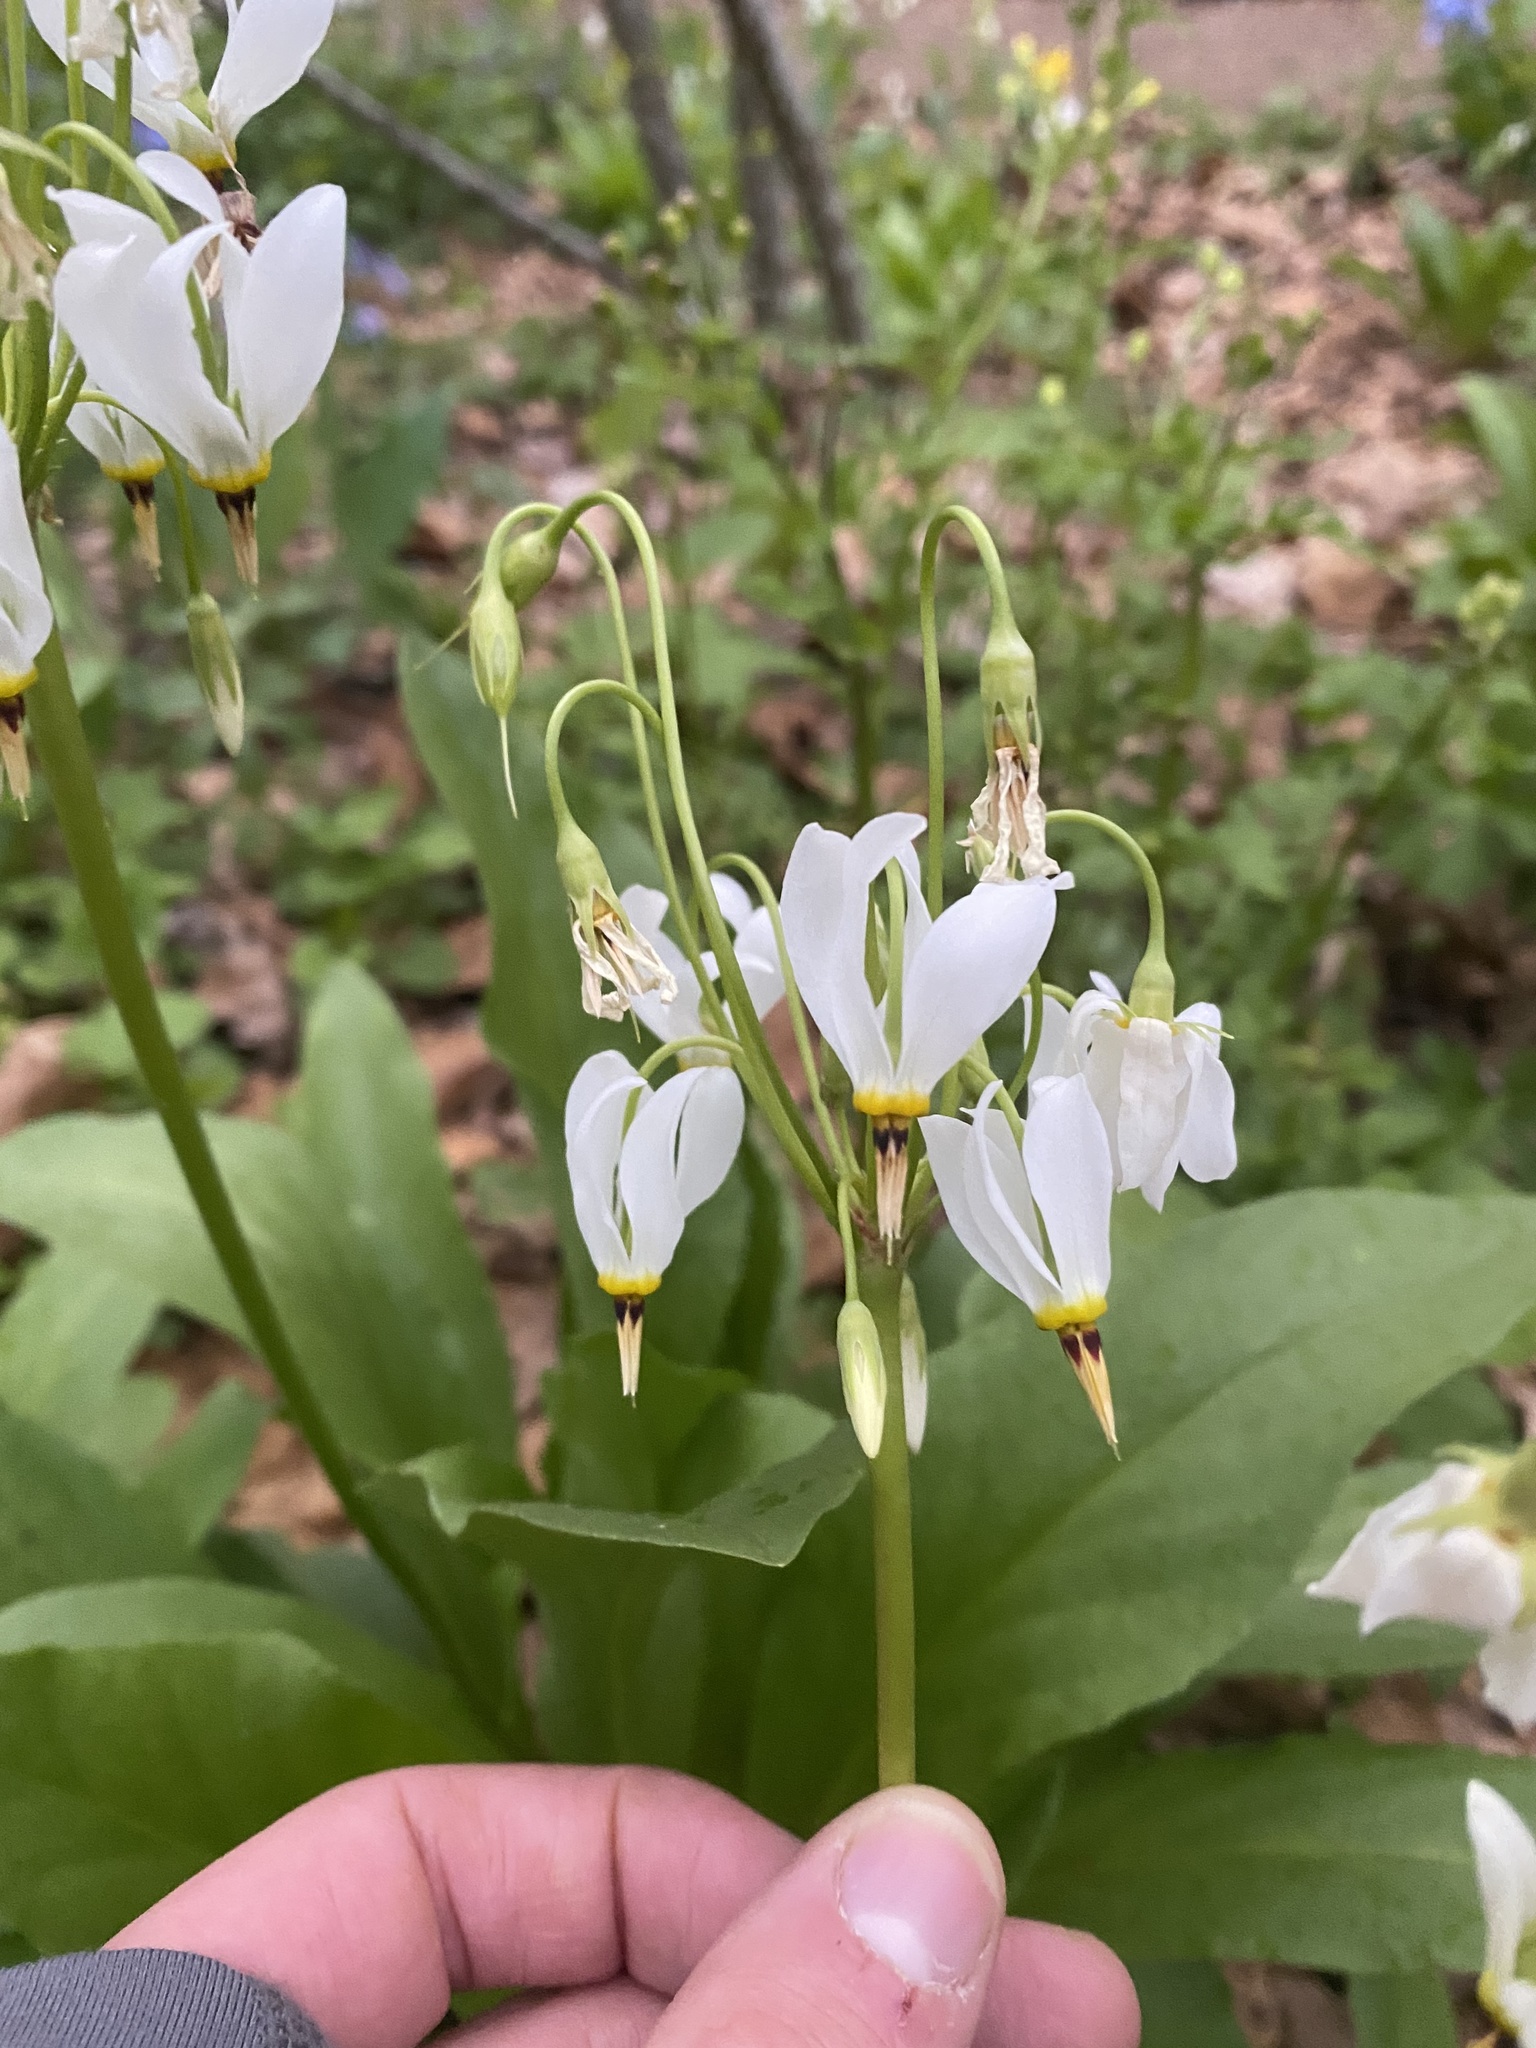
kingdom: Plantae
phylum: Tracheophyta
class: Magnoliopsida
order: Ericales
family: Primulaceae
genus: Dodecatheon
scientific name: Dodecatheon meadia
